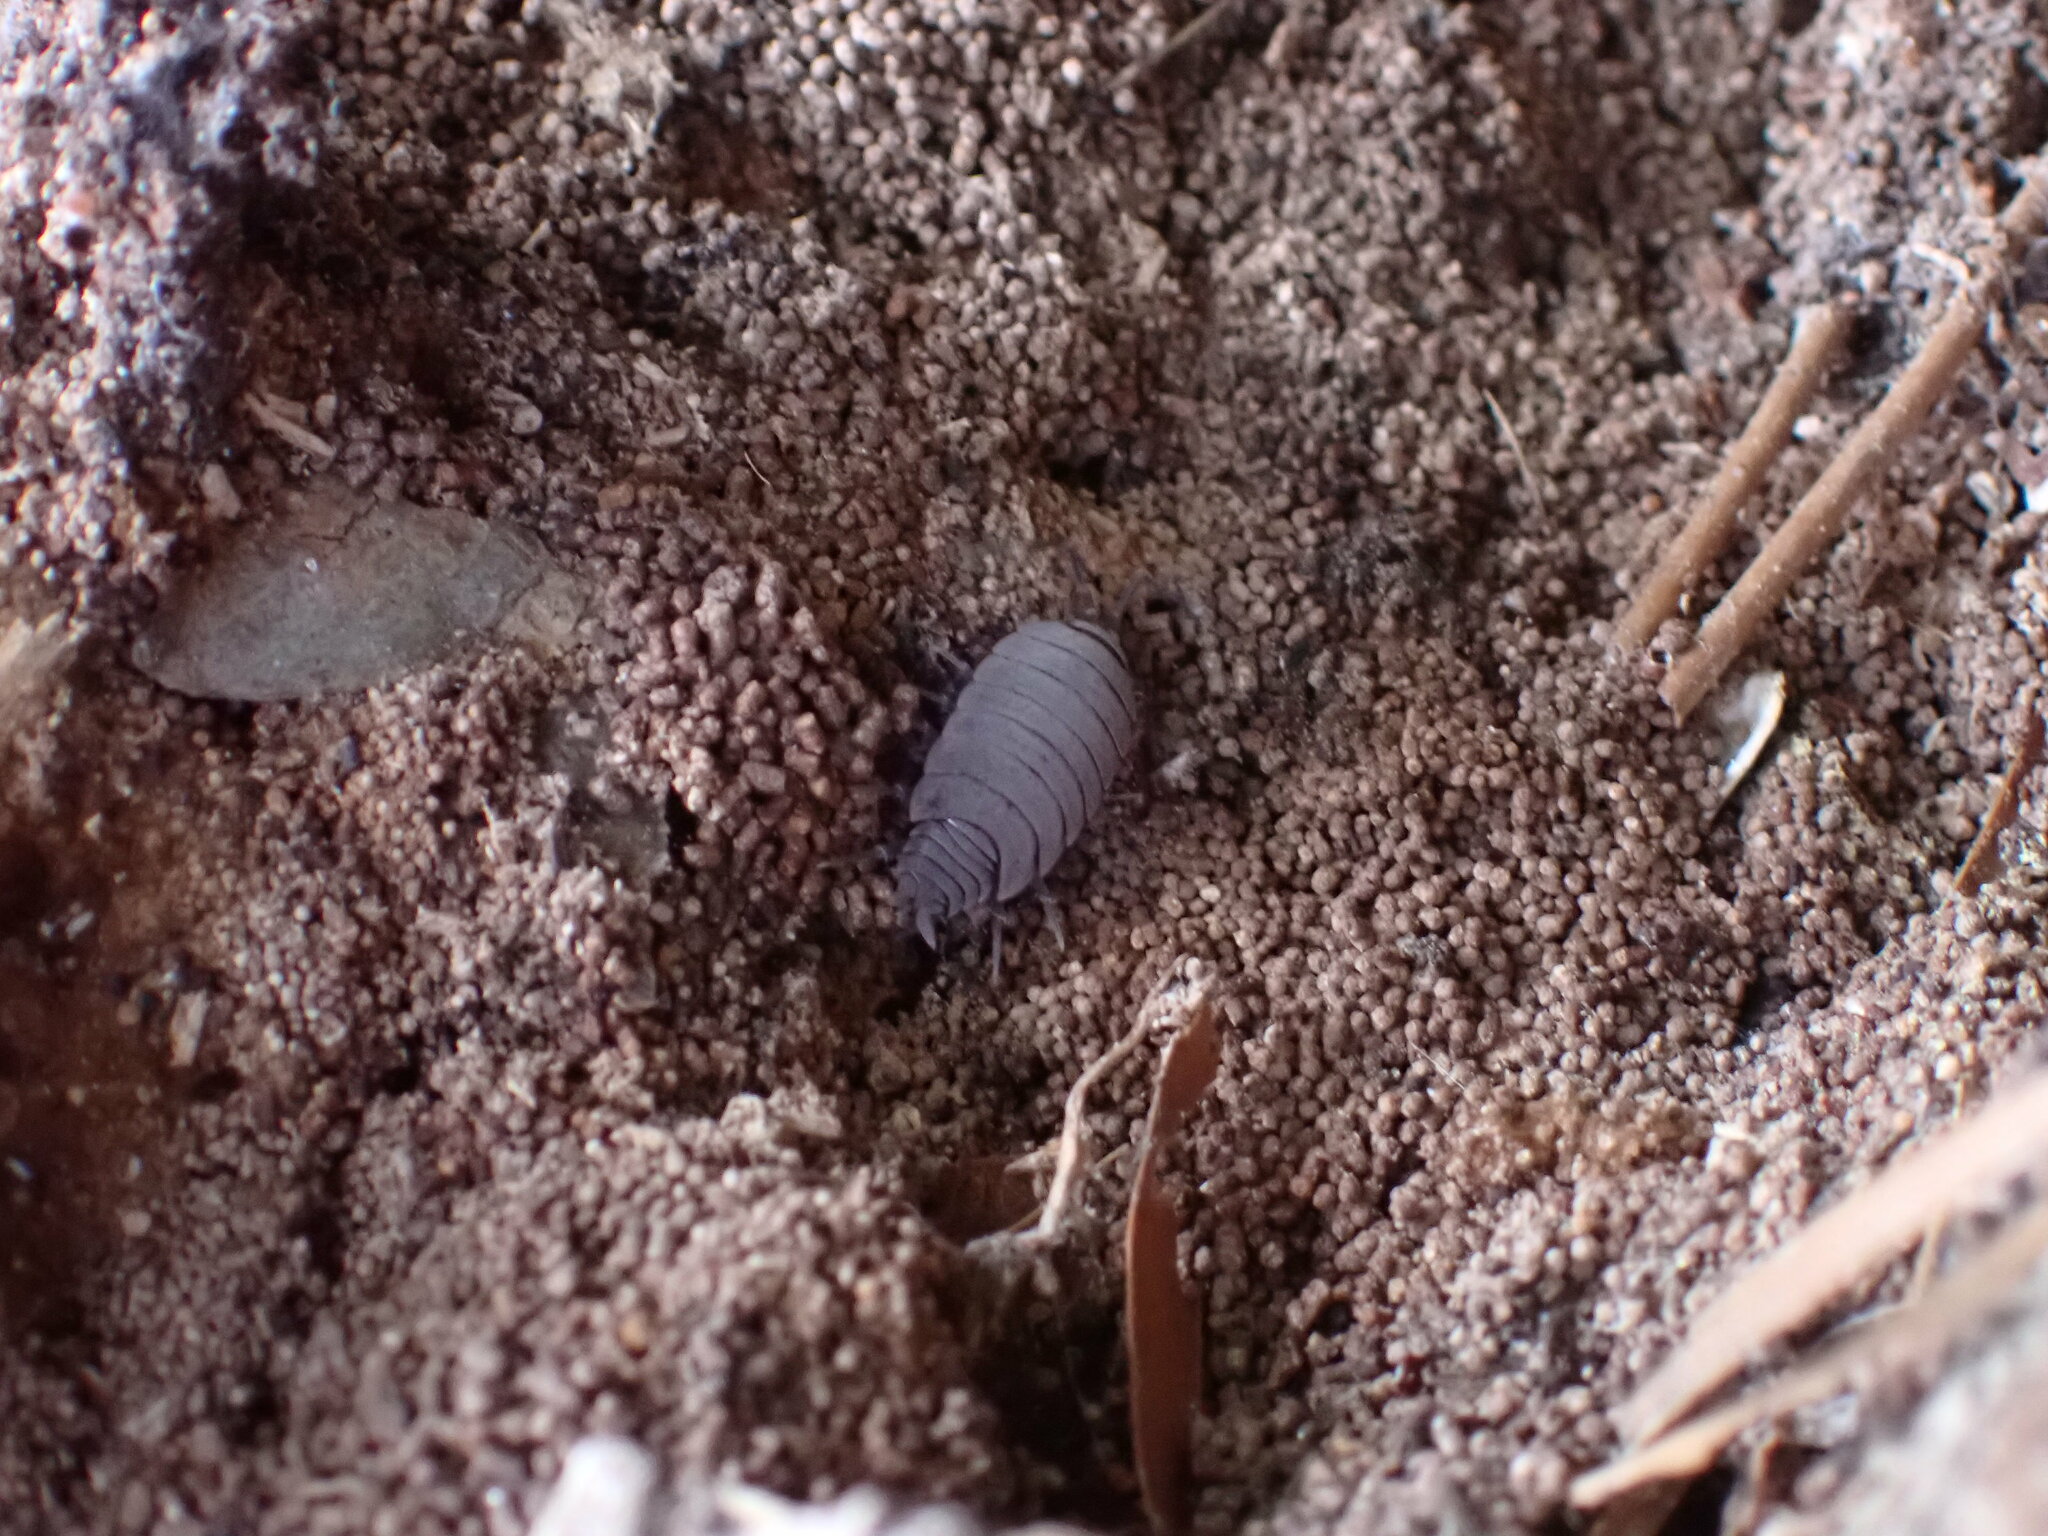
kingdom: Animalia
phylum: Arthropoda
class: Malacostraca
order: Isopoda
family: Porcellionidae
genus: Porcellionides
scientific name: Porcellionides
